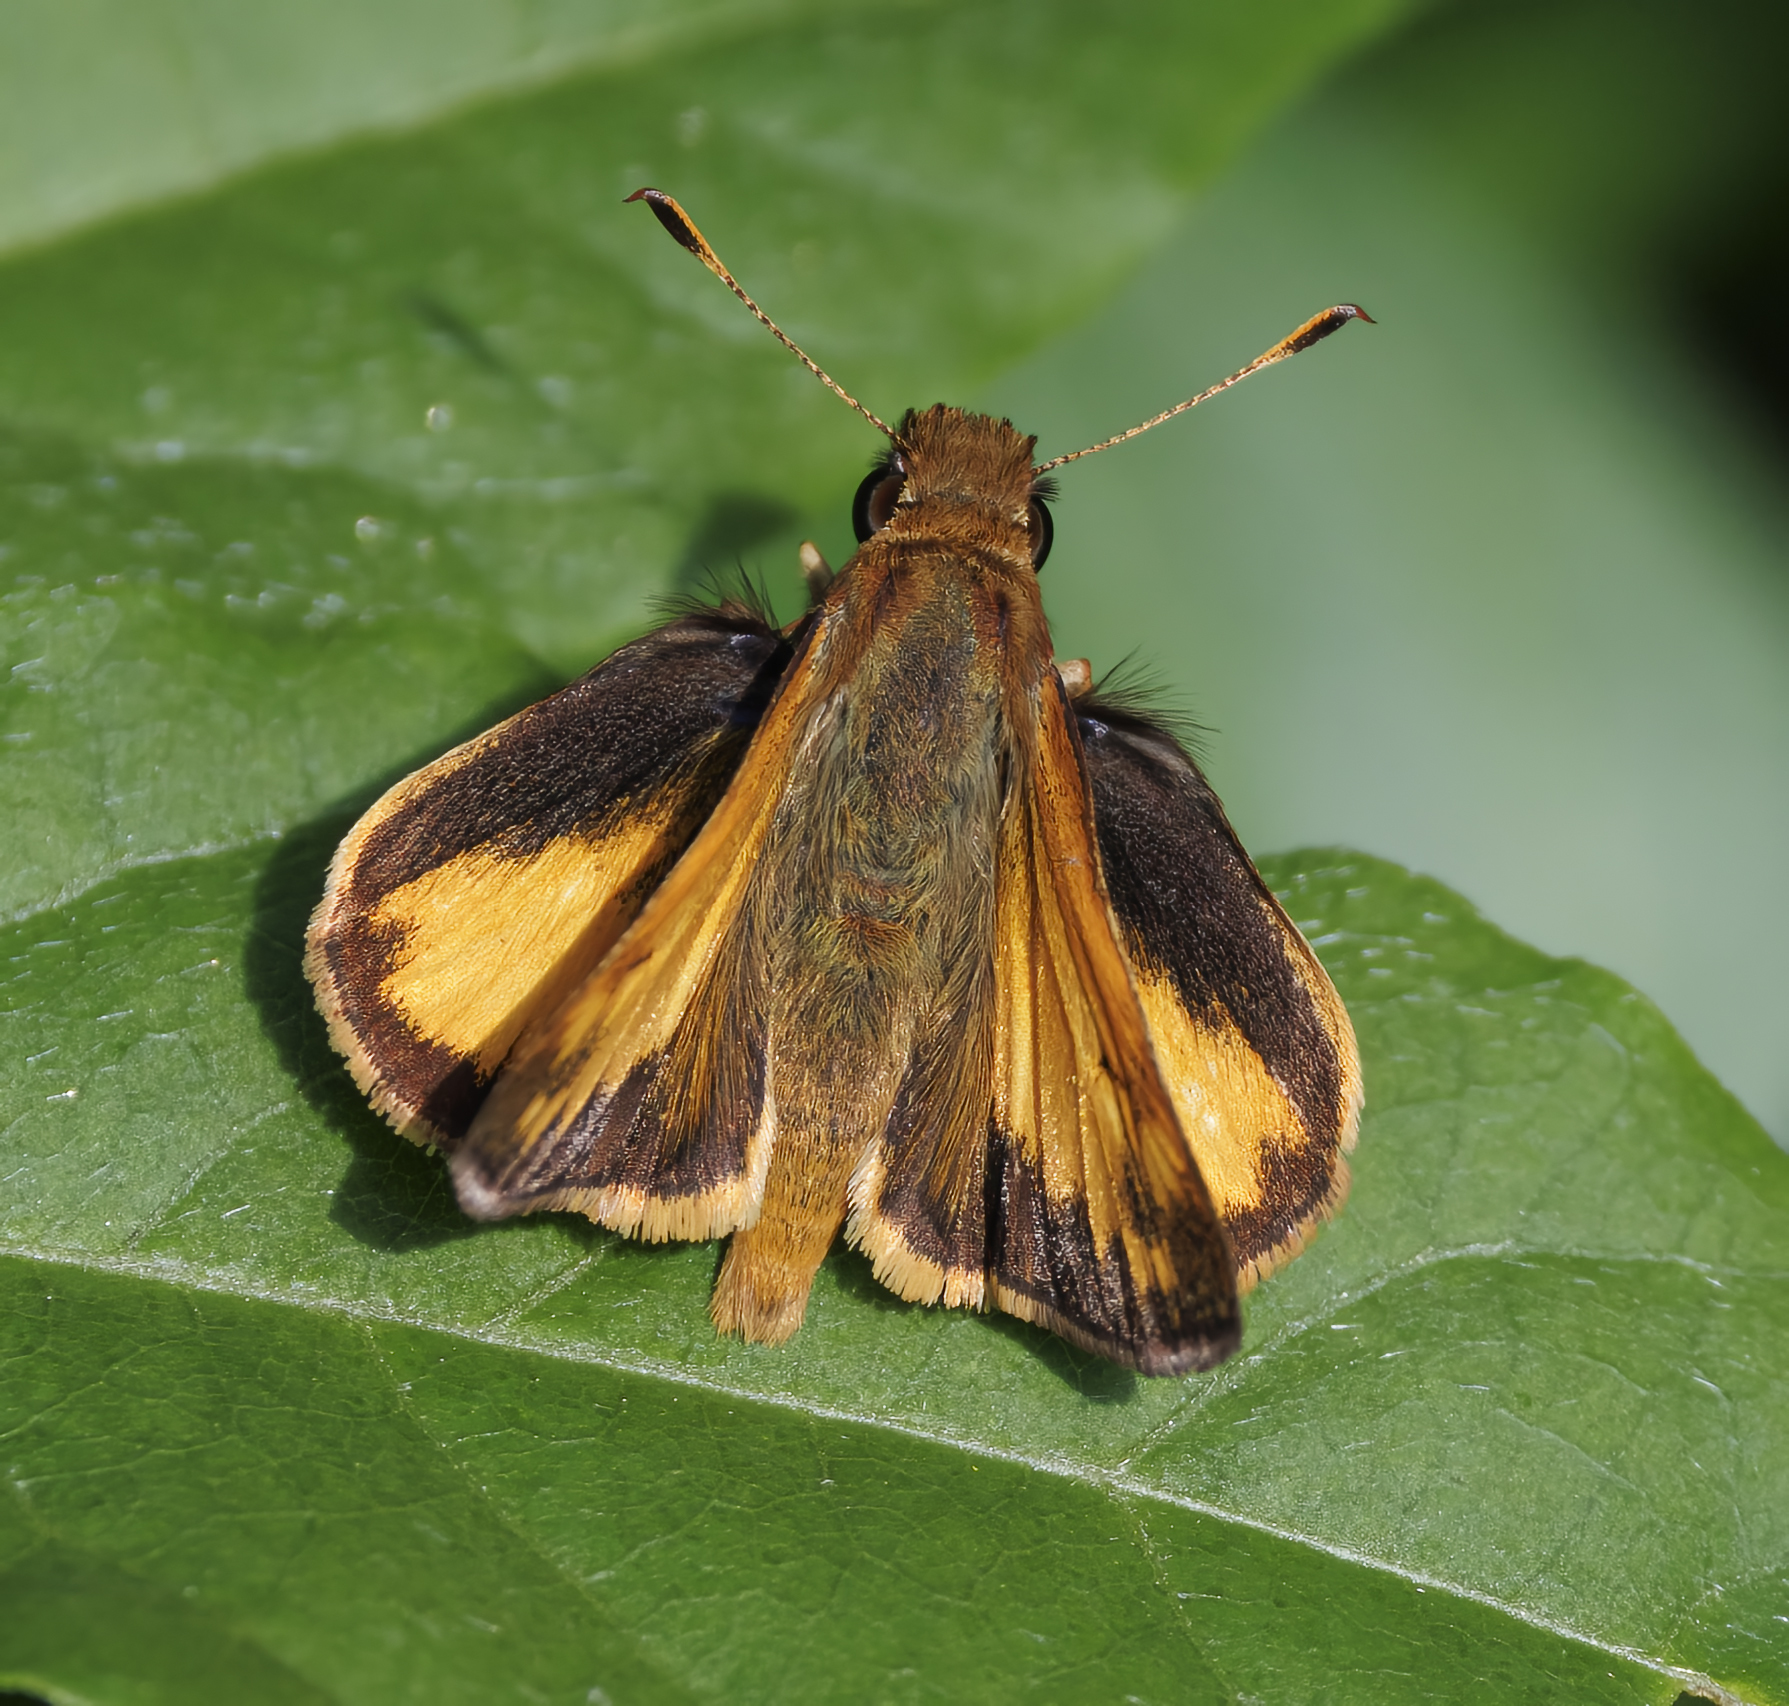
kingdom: Animalia
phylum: Arthropoda
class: Insecta
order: Lepidoptera
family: Hesperiidae
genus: Lon
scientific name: Lon zabulon
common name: Zabulon skipper
